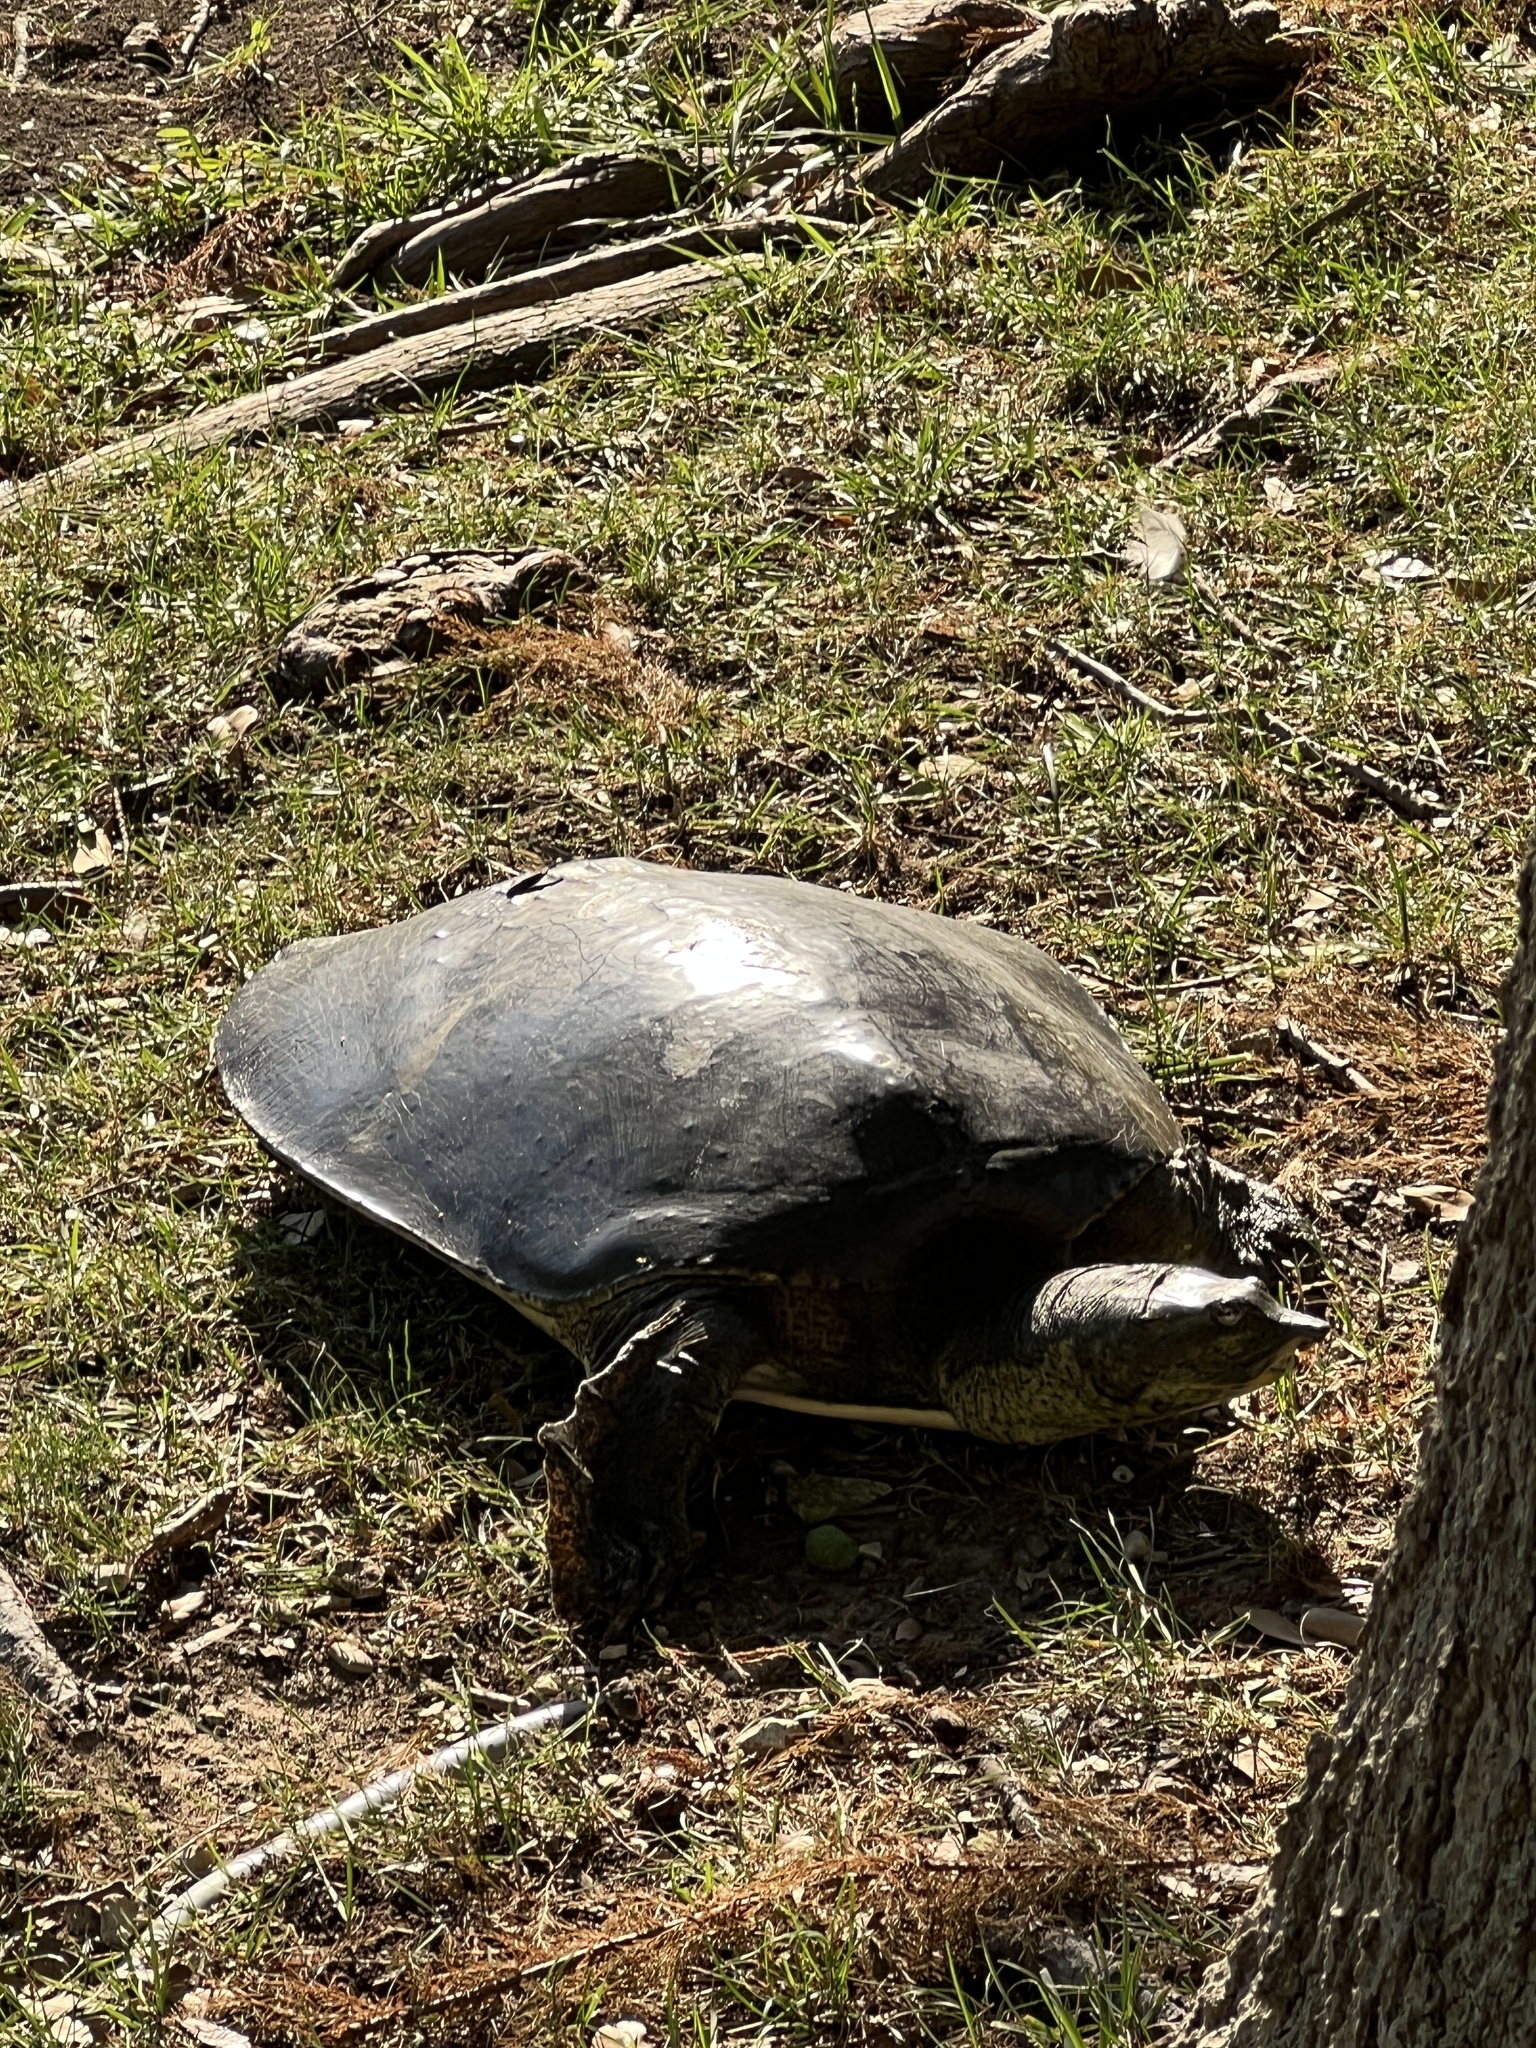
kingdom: Animalia
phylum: Chordata
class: Testudines
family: Trionychidae
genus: Apalone
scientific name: Apalone spinifera
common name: Spiny softshell turtle
